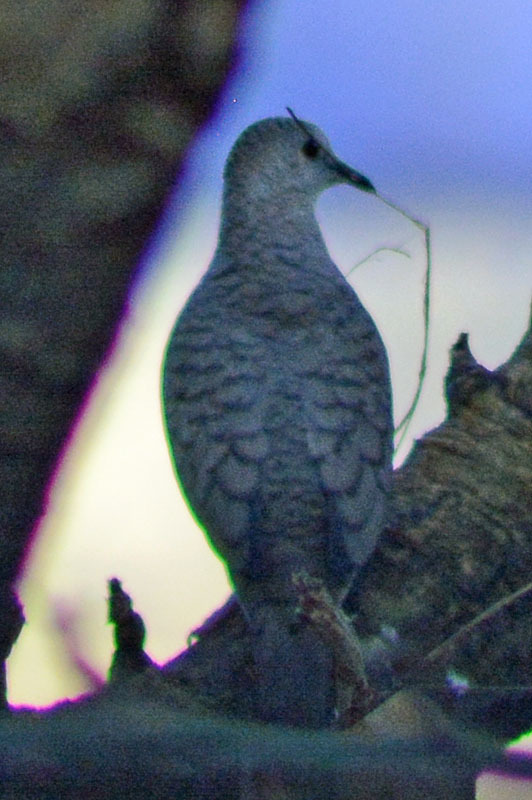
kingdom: Animalia
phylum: Chordata
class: Aves
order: Columbiformes
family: Columbidae
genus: Columbina
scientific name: Columbina inca
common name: Inca dove
